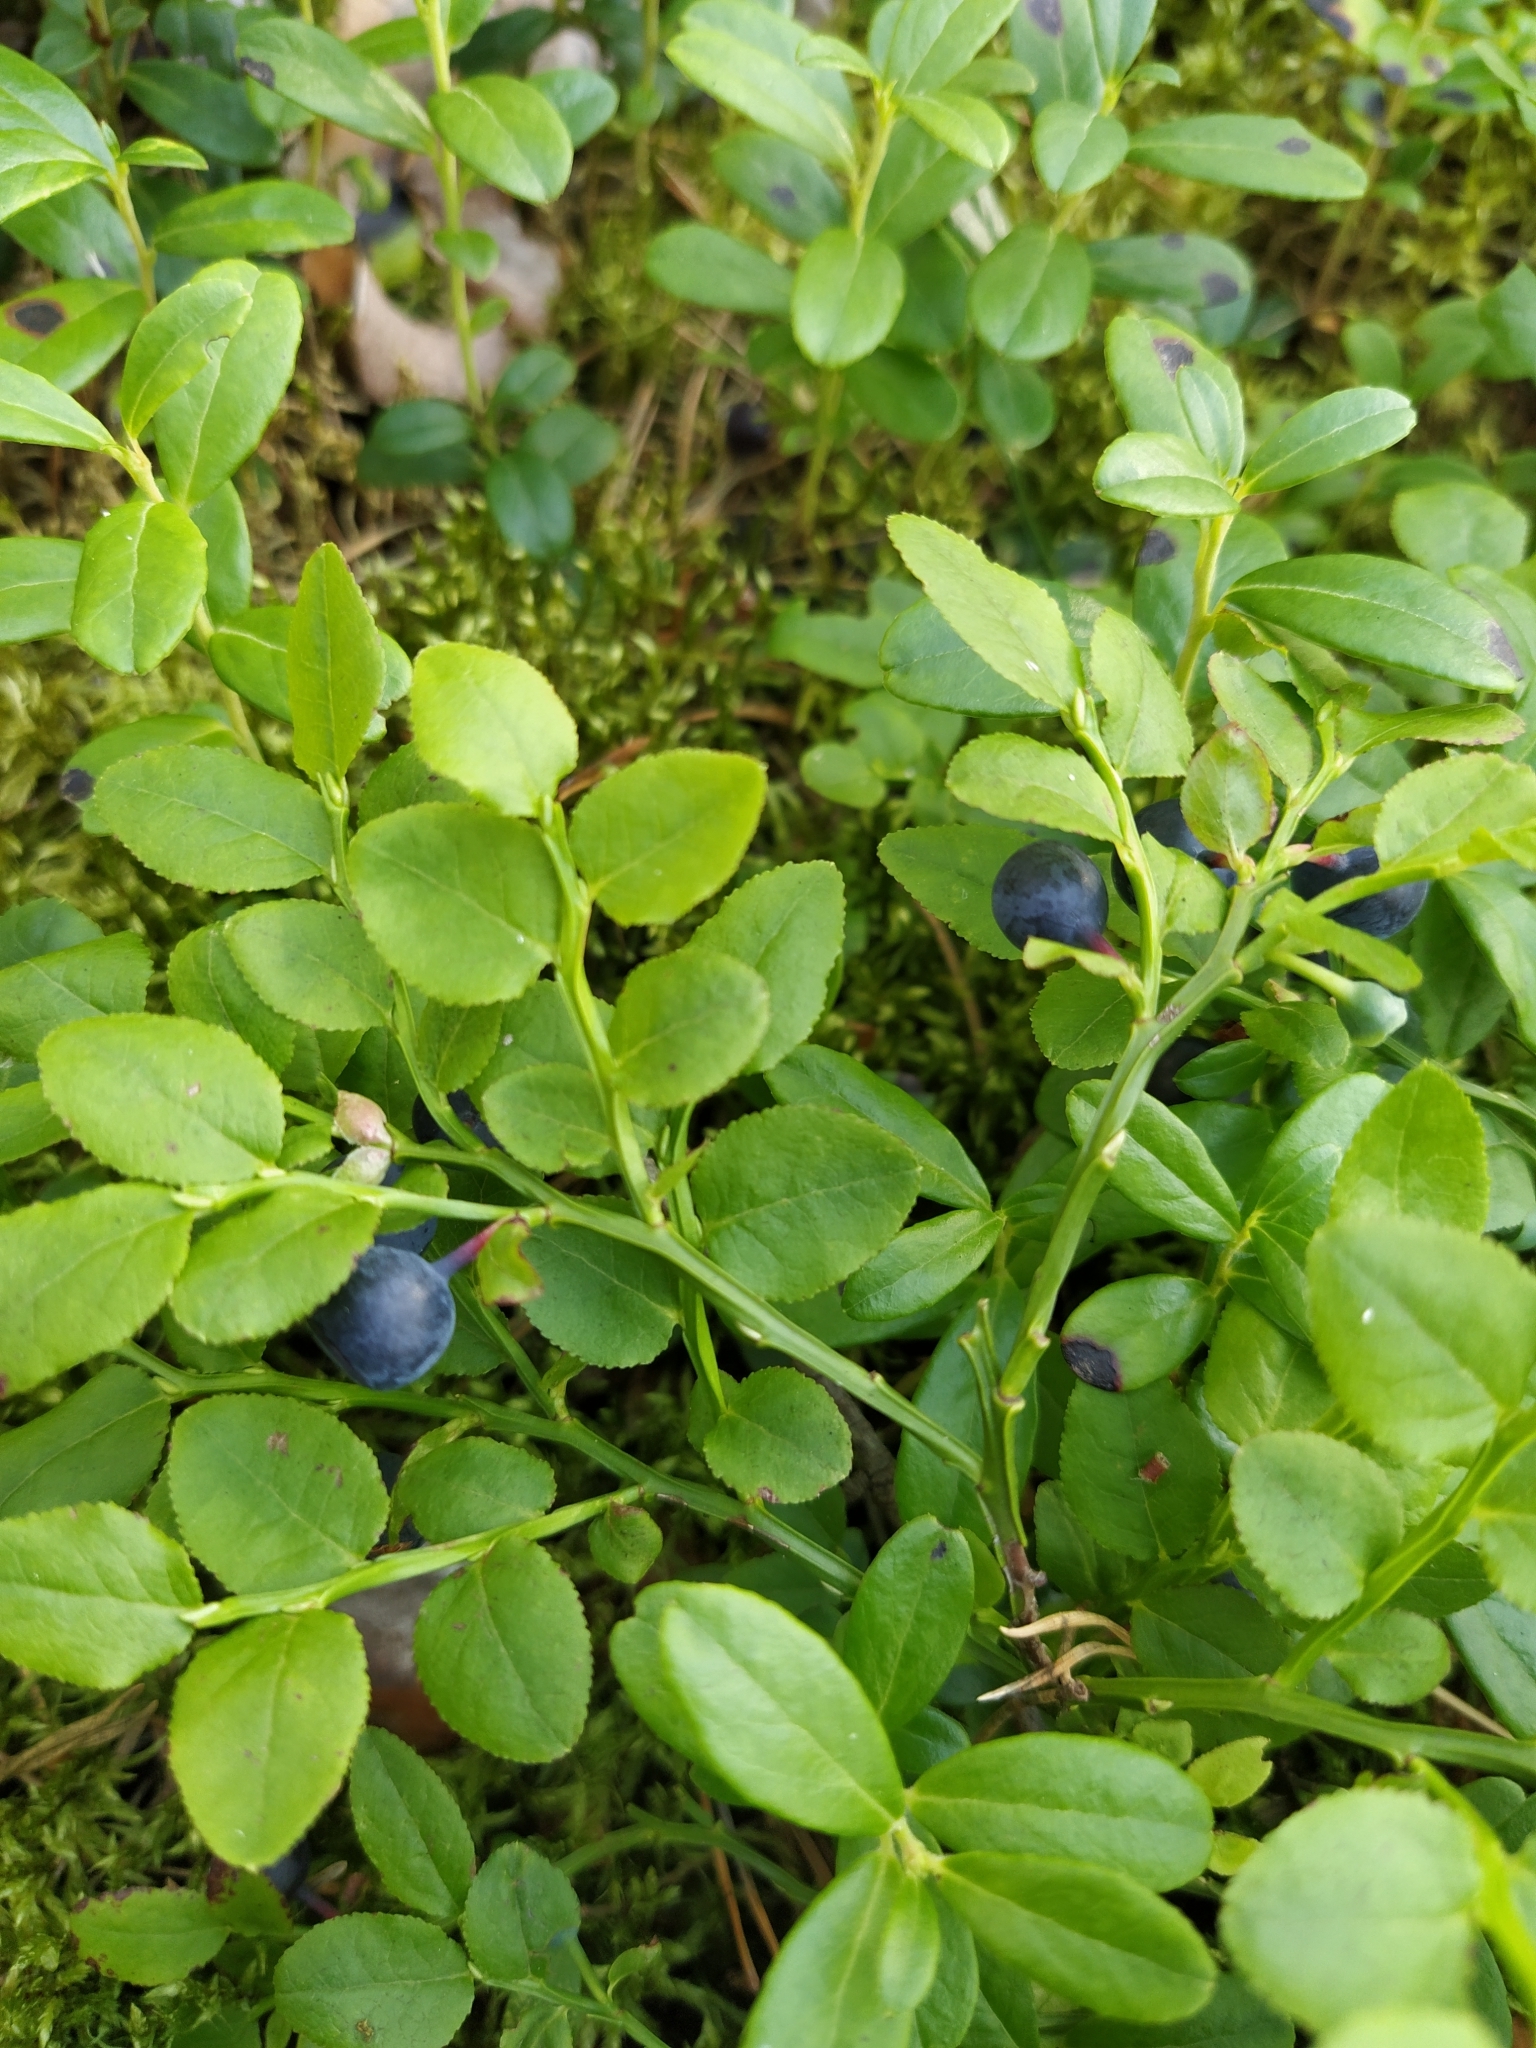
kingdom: Plantae
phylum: Tracheophyta
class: Magnoliopsida
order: Ericales
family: Ericaceae
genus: Vaccinium
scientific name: Vaccinium myrtillus
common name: Bilberry
